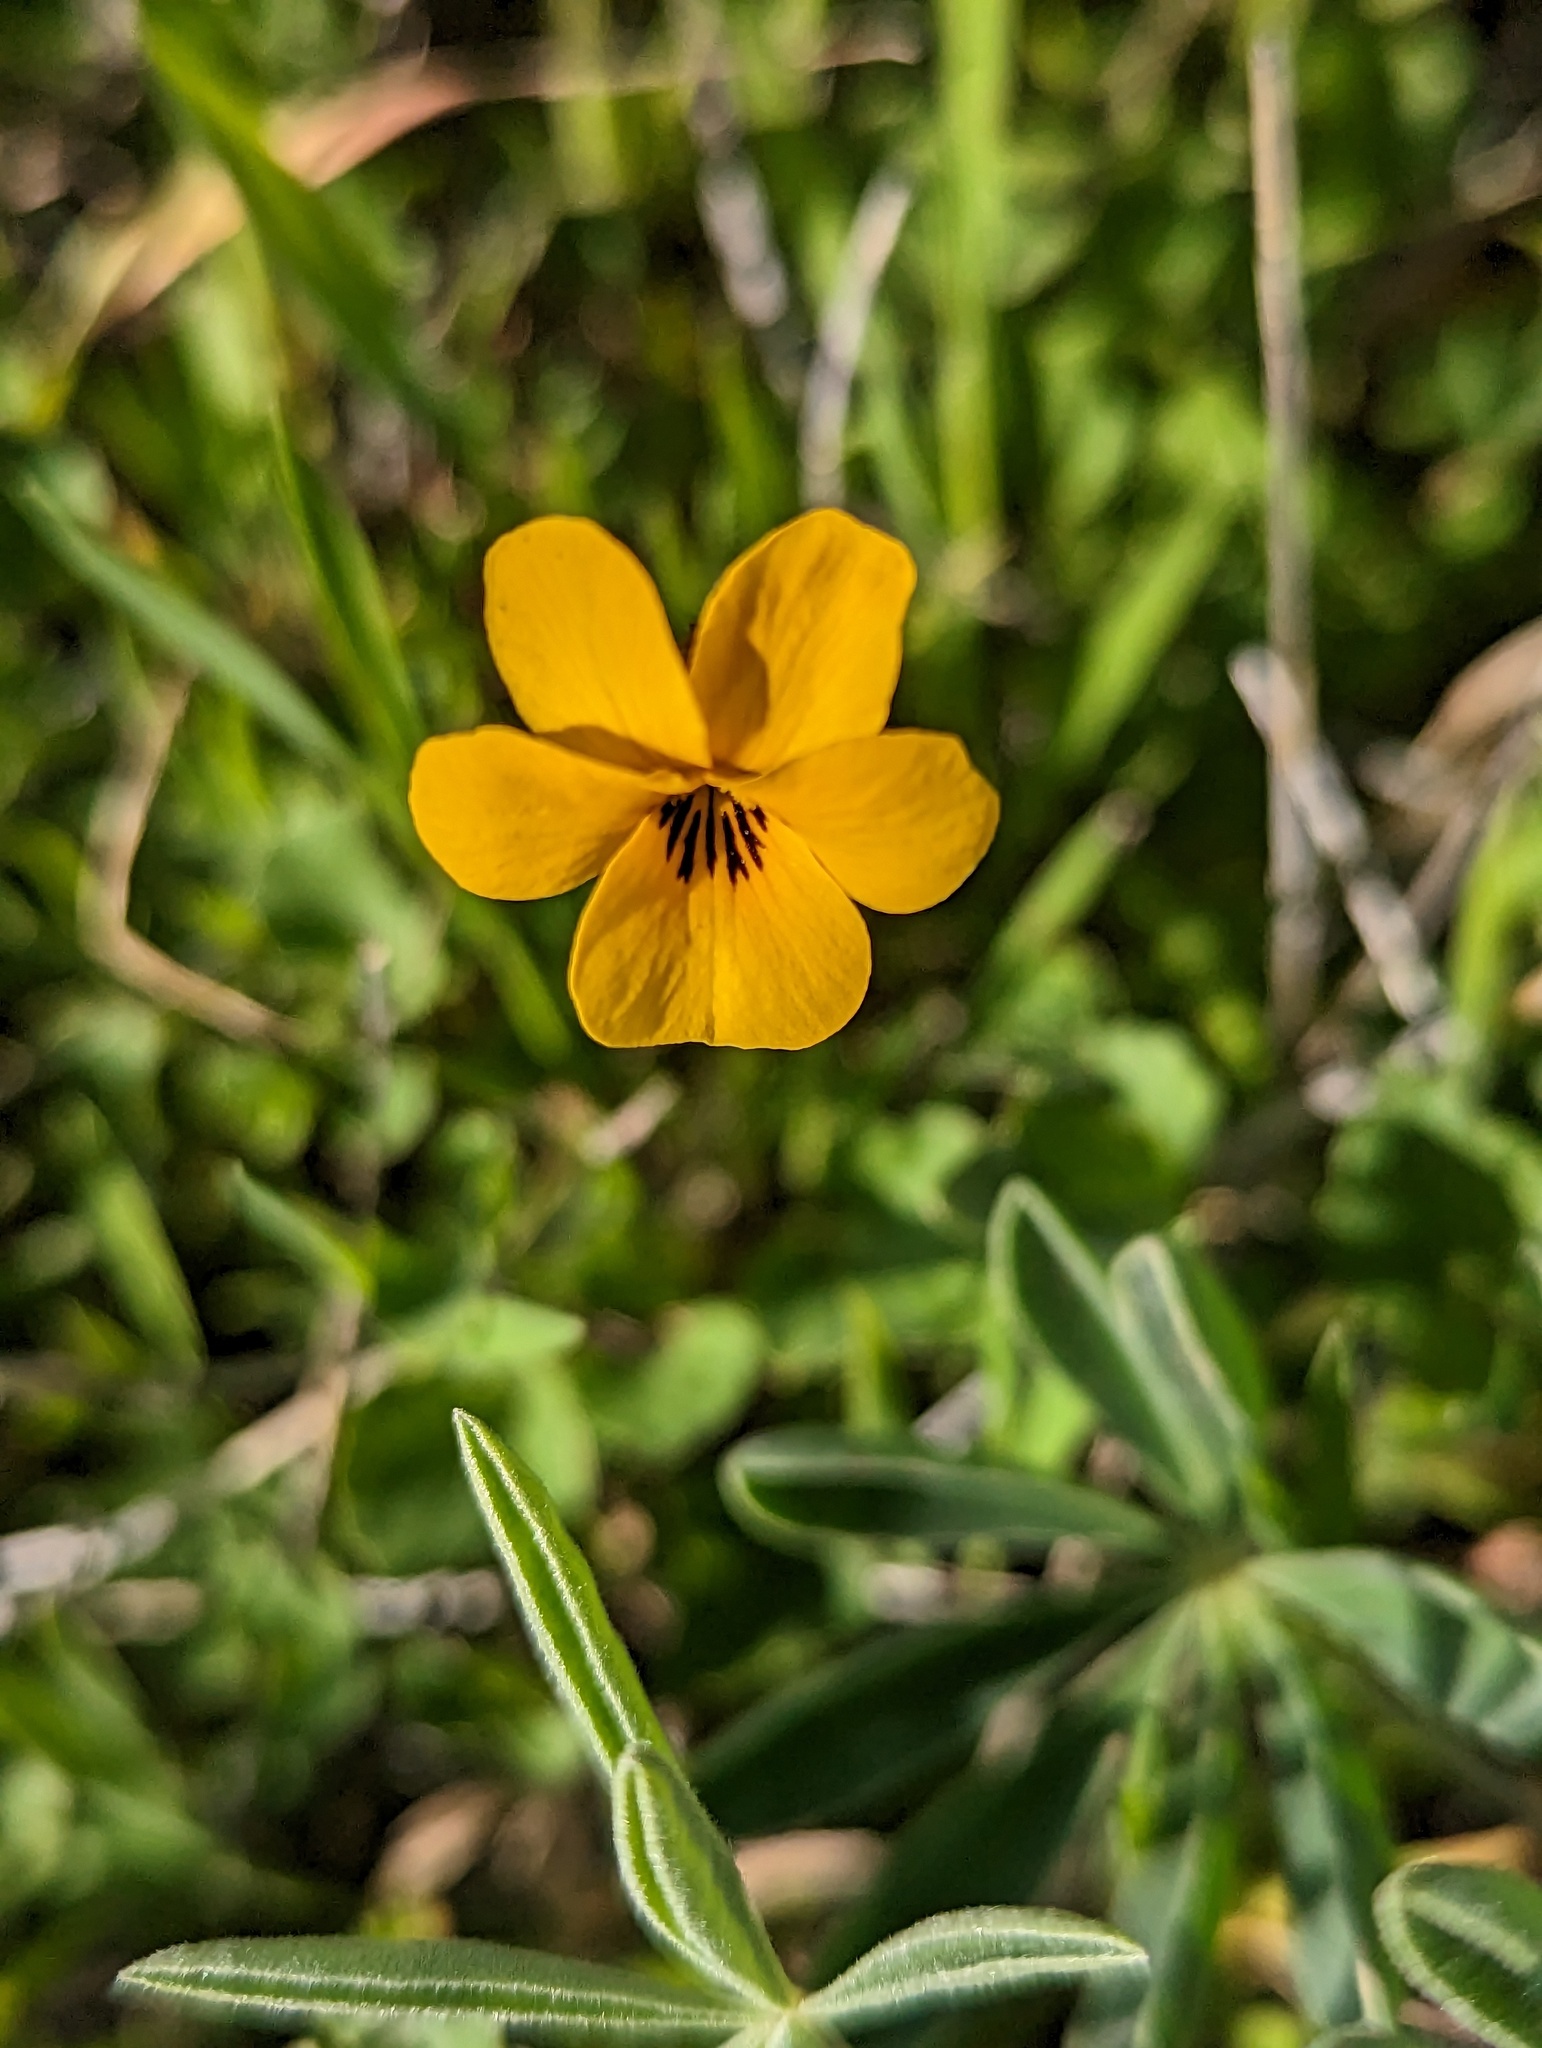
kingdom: Plantae
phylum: Tracheophyta
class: Magnoliopsida
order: Malpighiales
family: Violaceae
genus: Viola
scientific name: Viola pedunculata
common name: California golden violet
